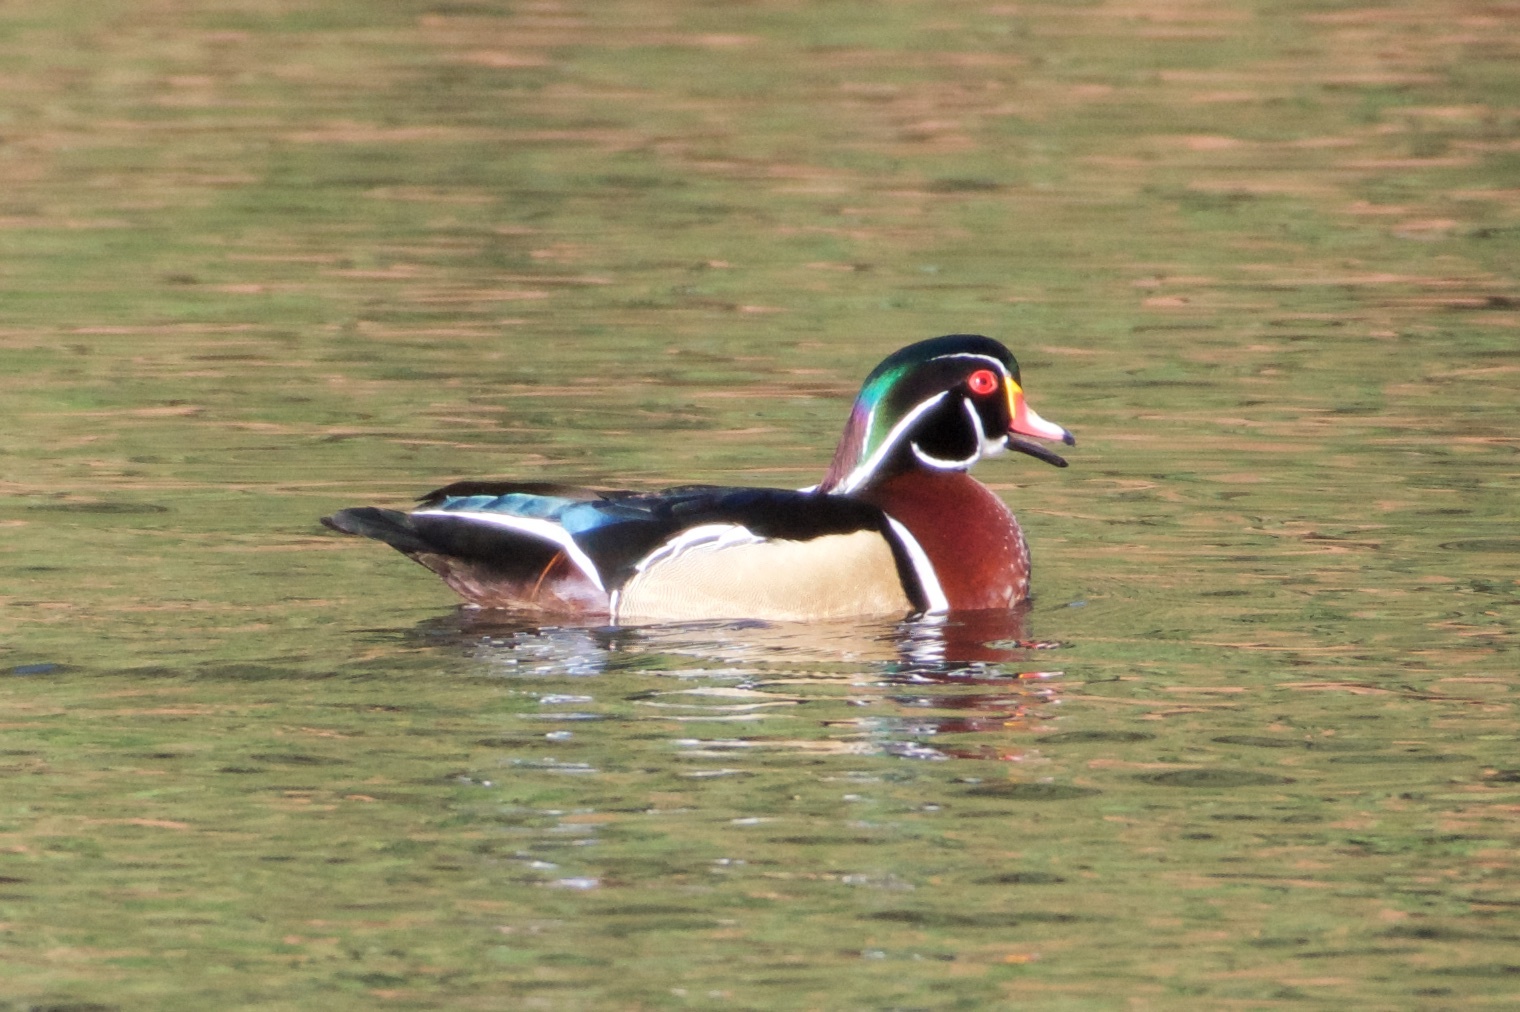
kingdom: Animalia
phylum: Chordata
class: Aves
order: Anseriformes
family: Anatidae
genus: Aix
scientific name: Aix sponsa
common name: Wood duck
